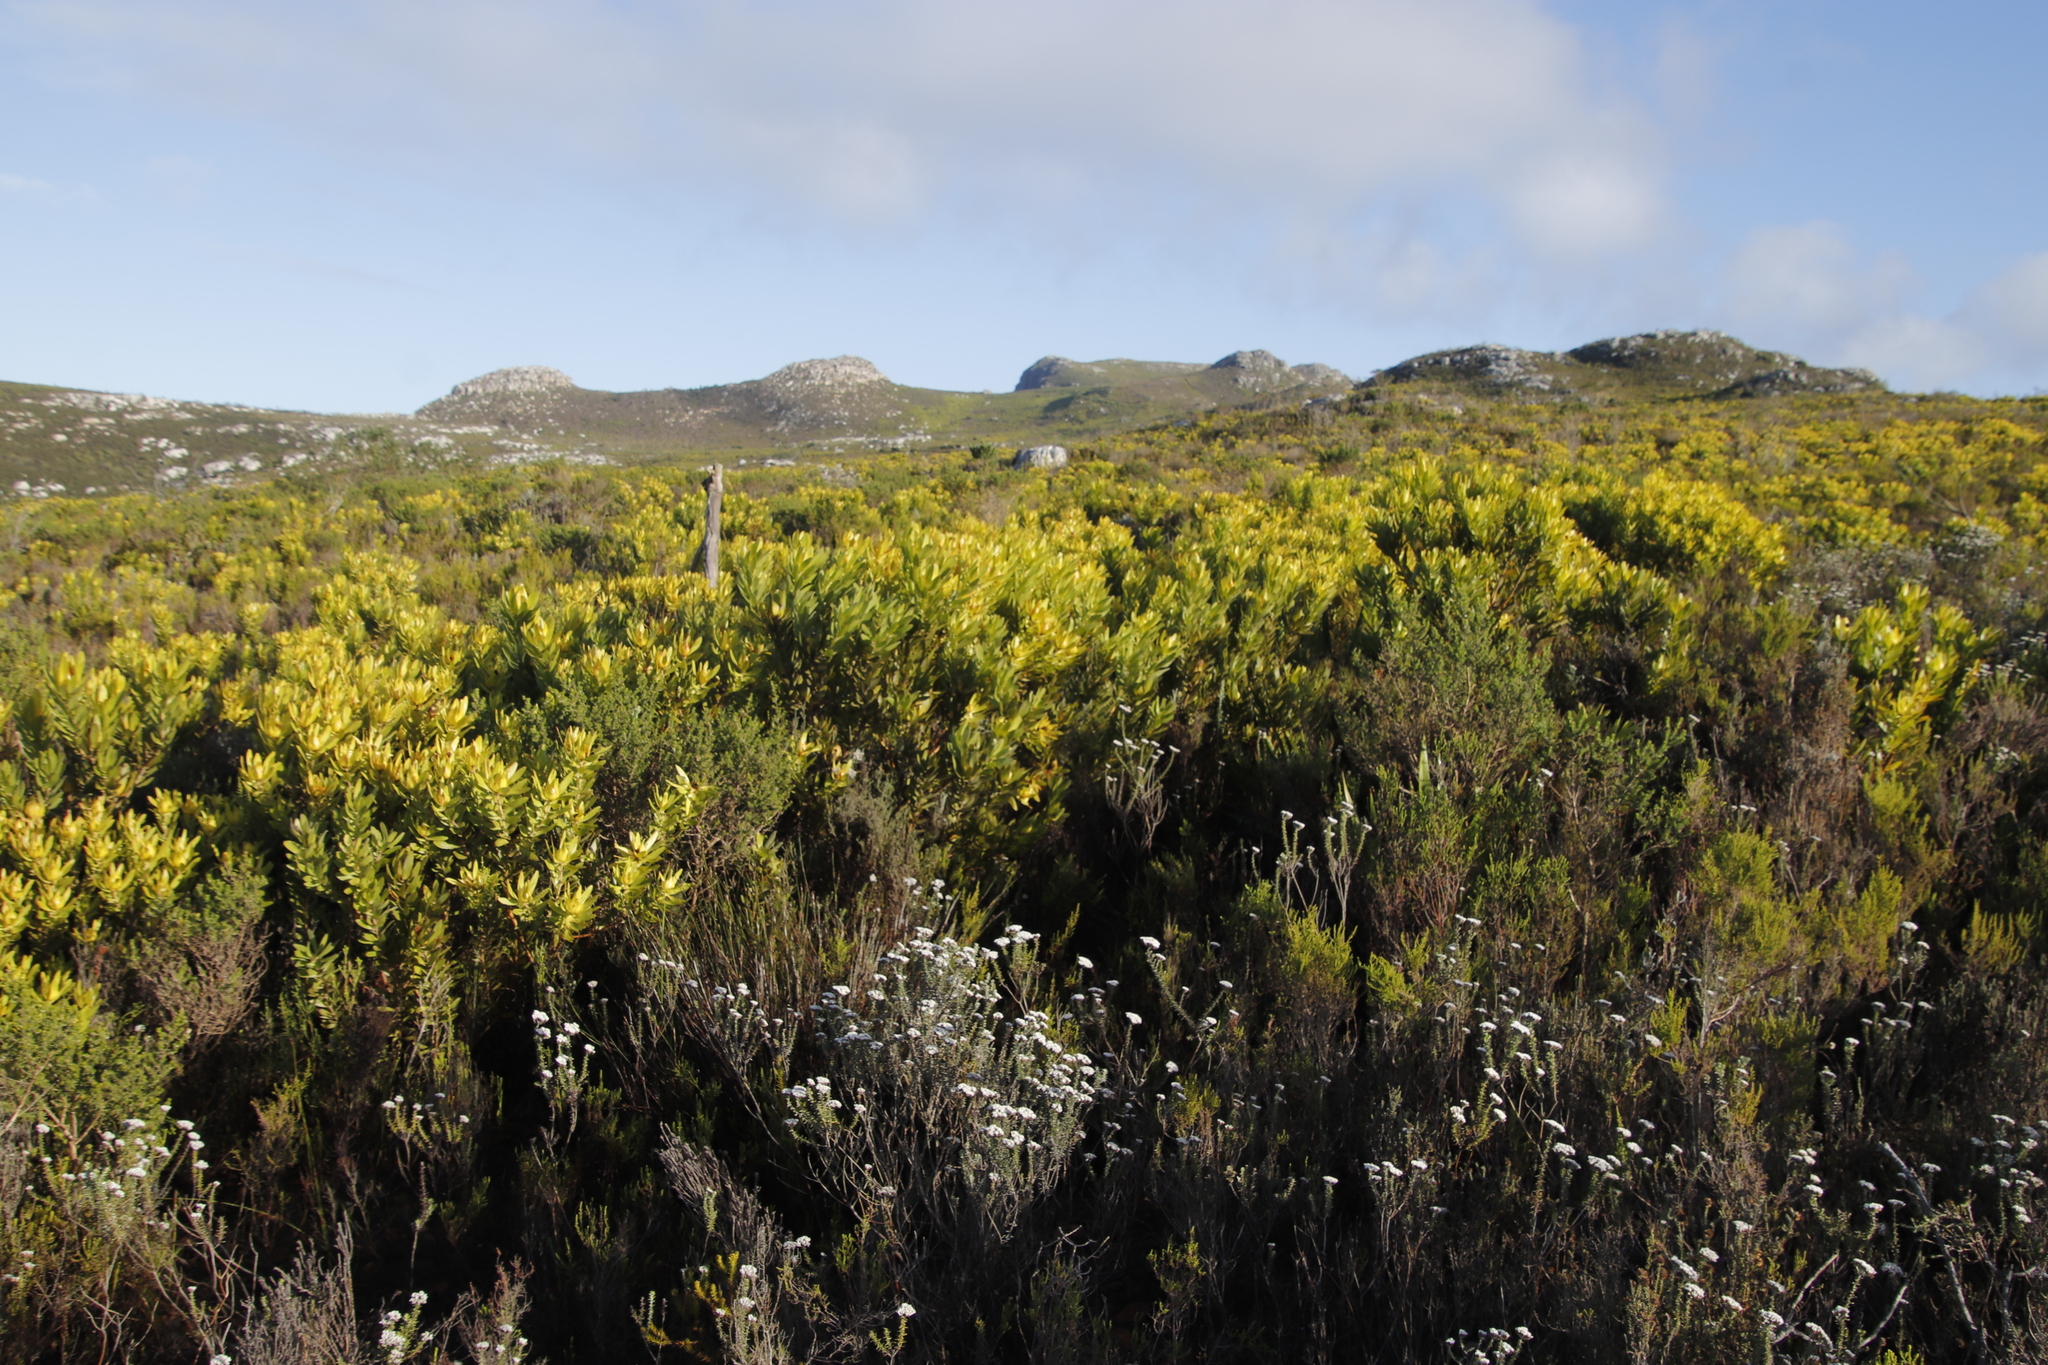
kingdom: Plantae
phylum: Tracheophyta
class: Magnoliopsida
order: Proteales
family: Proteaceae
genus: Leucadendron
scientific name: Leucadendron laureolum
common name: Golden sunshinebush
